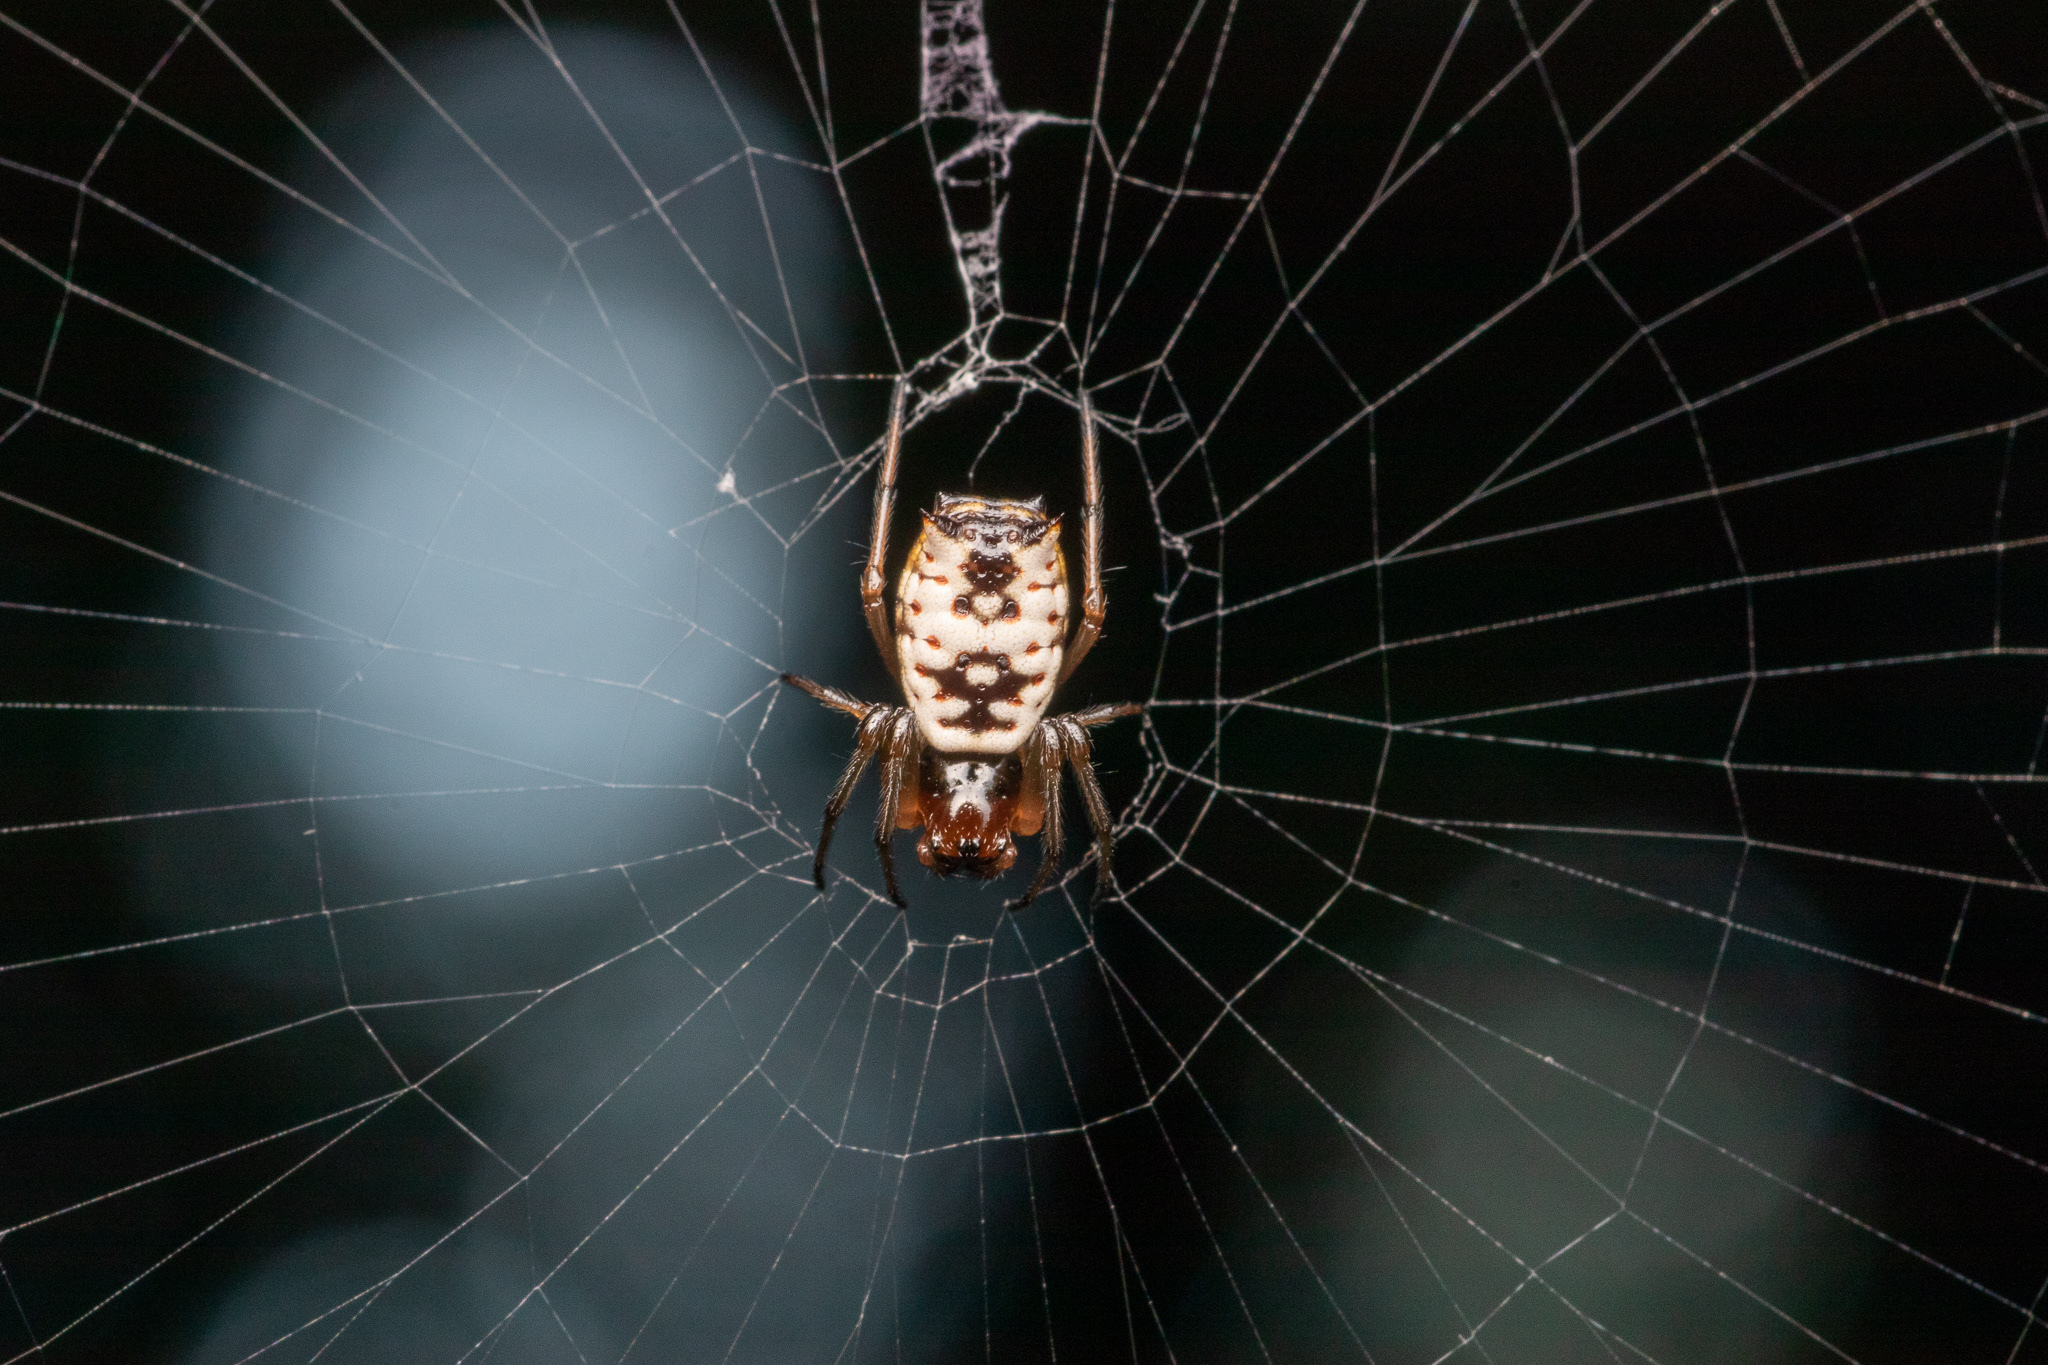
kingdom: Animalia
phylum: Arthropoda
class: Arachnida
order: Araneae
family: Araneidae
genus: Micrathena
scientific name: Micrathena mitrata
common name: Orb weavers
